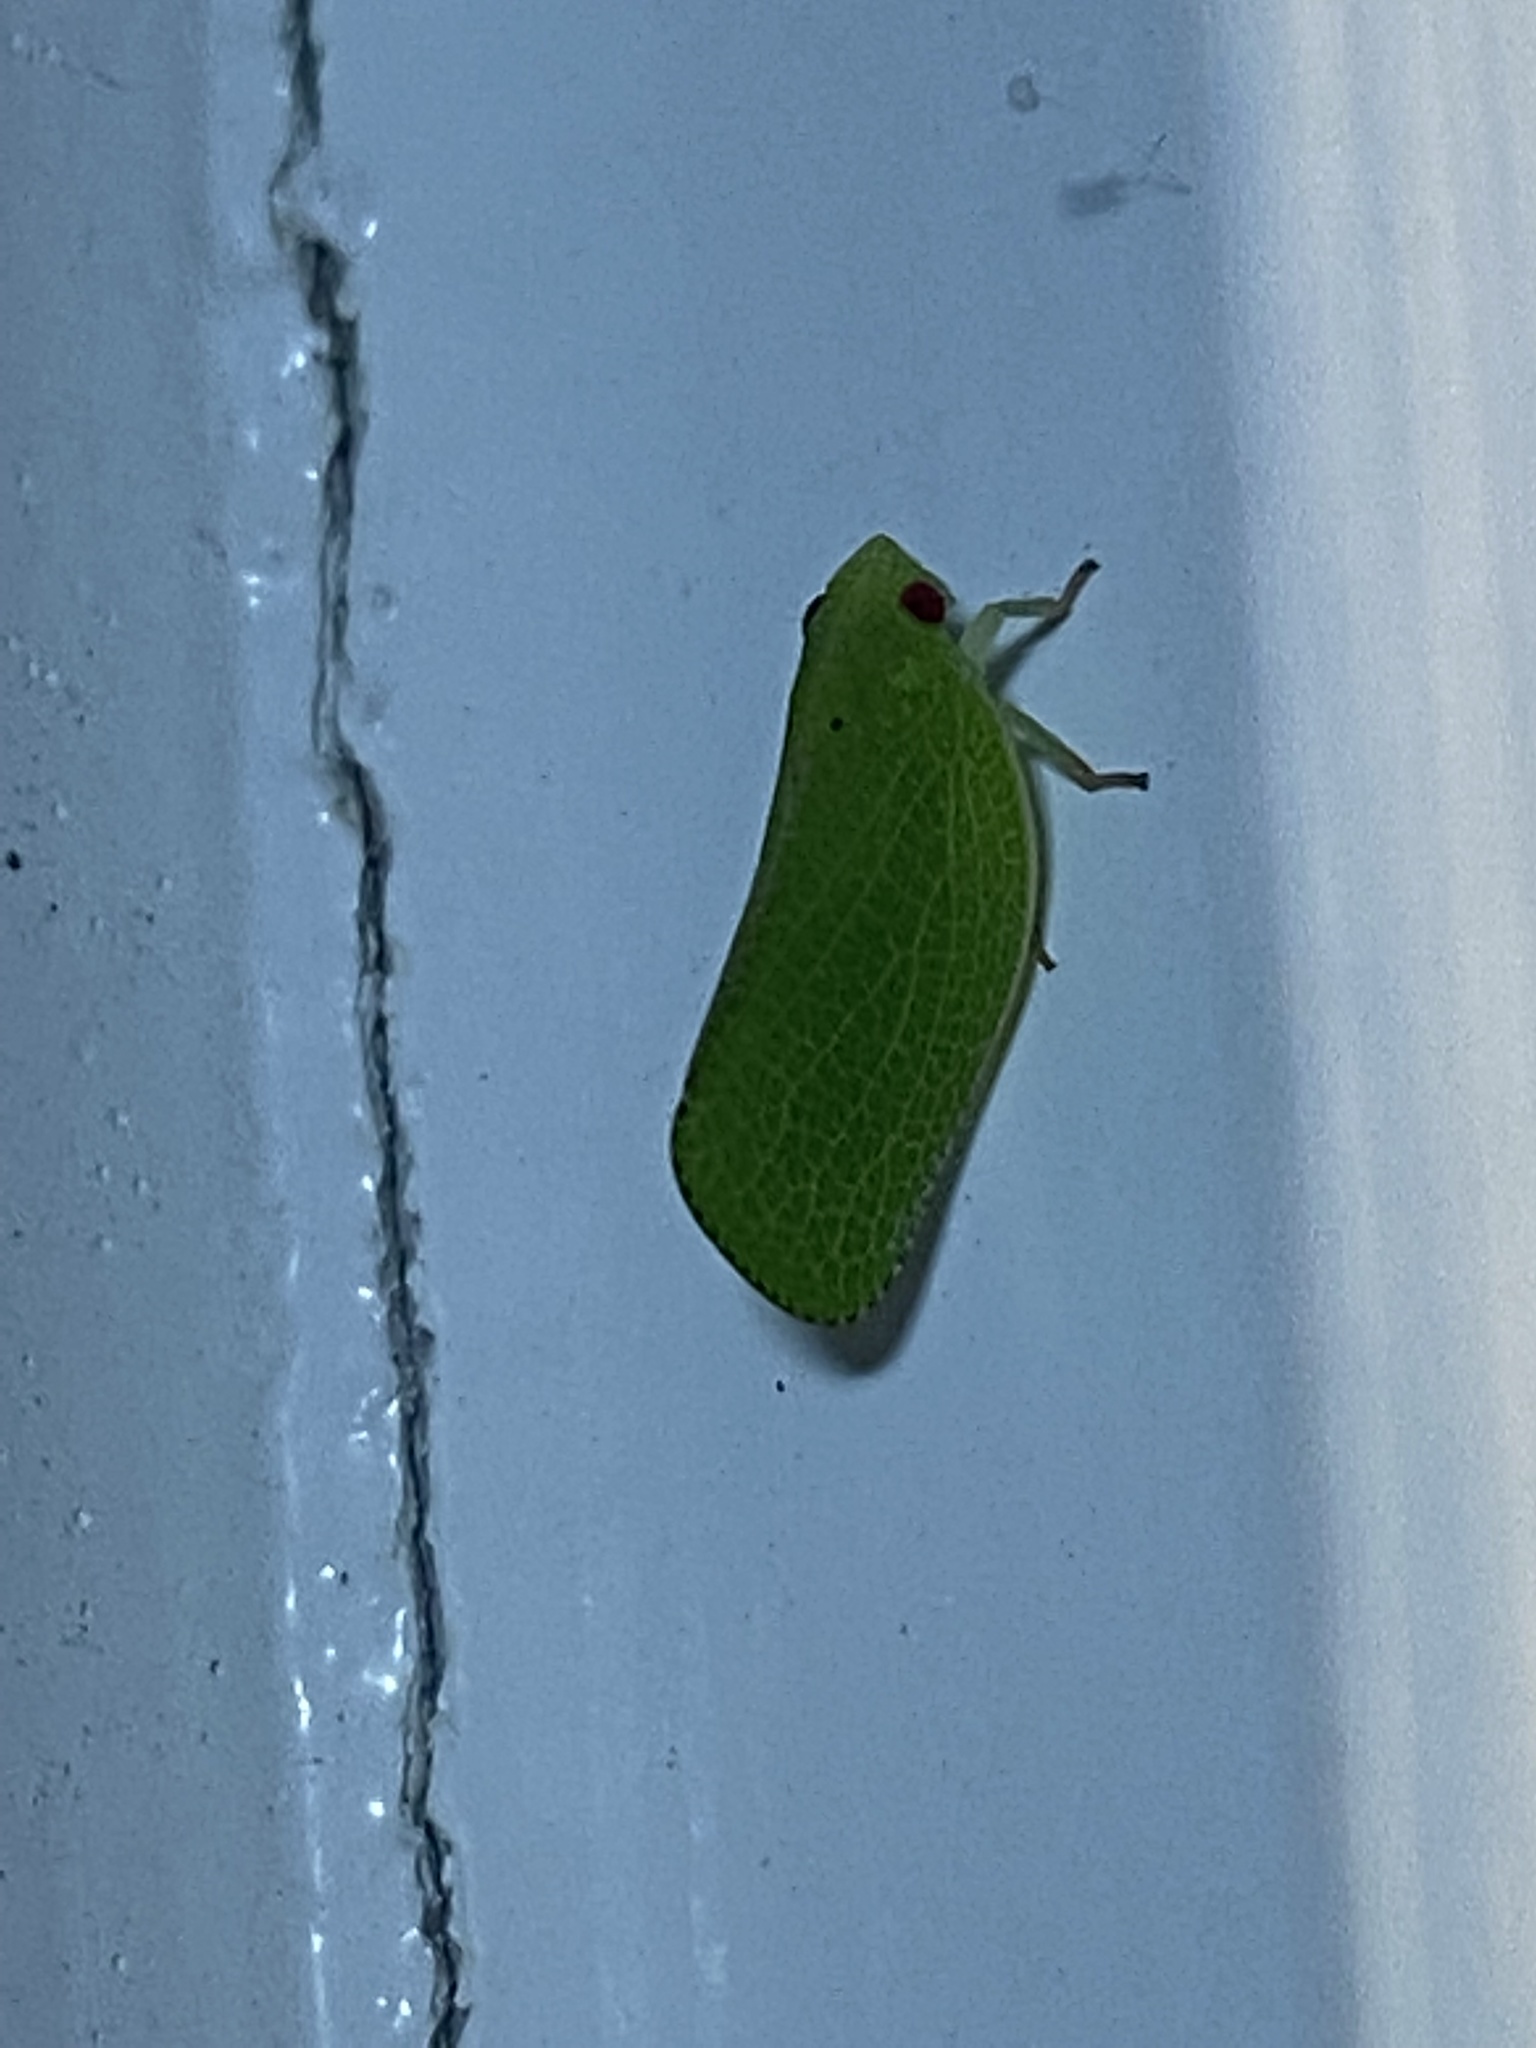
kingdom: Animalia
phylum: Arthropoda
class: Insecta
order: Hemiptera
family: Acanaloniidae
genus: Acanalonia
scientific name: Acanalonia conica
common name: Green cone-headed planthopper
